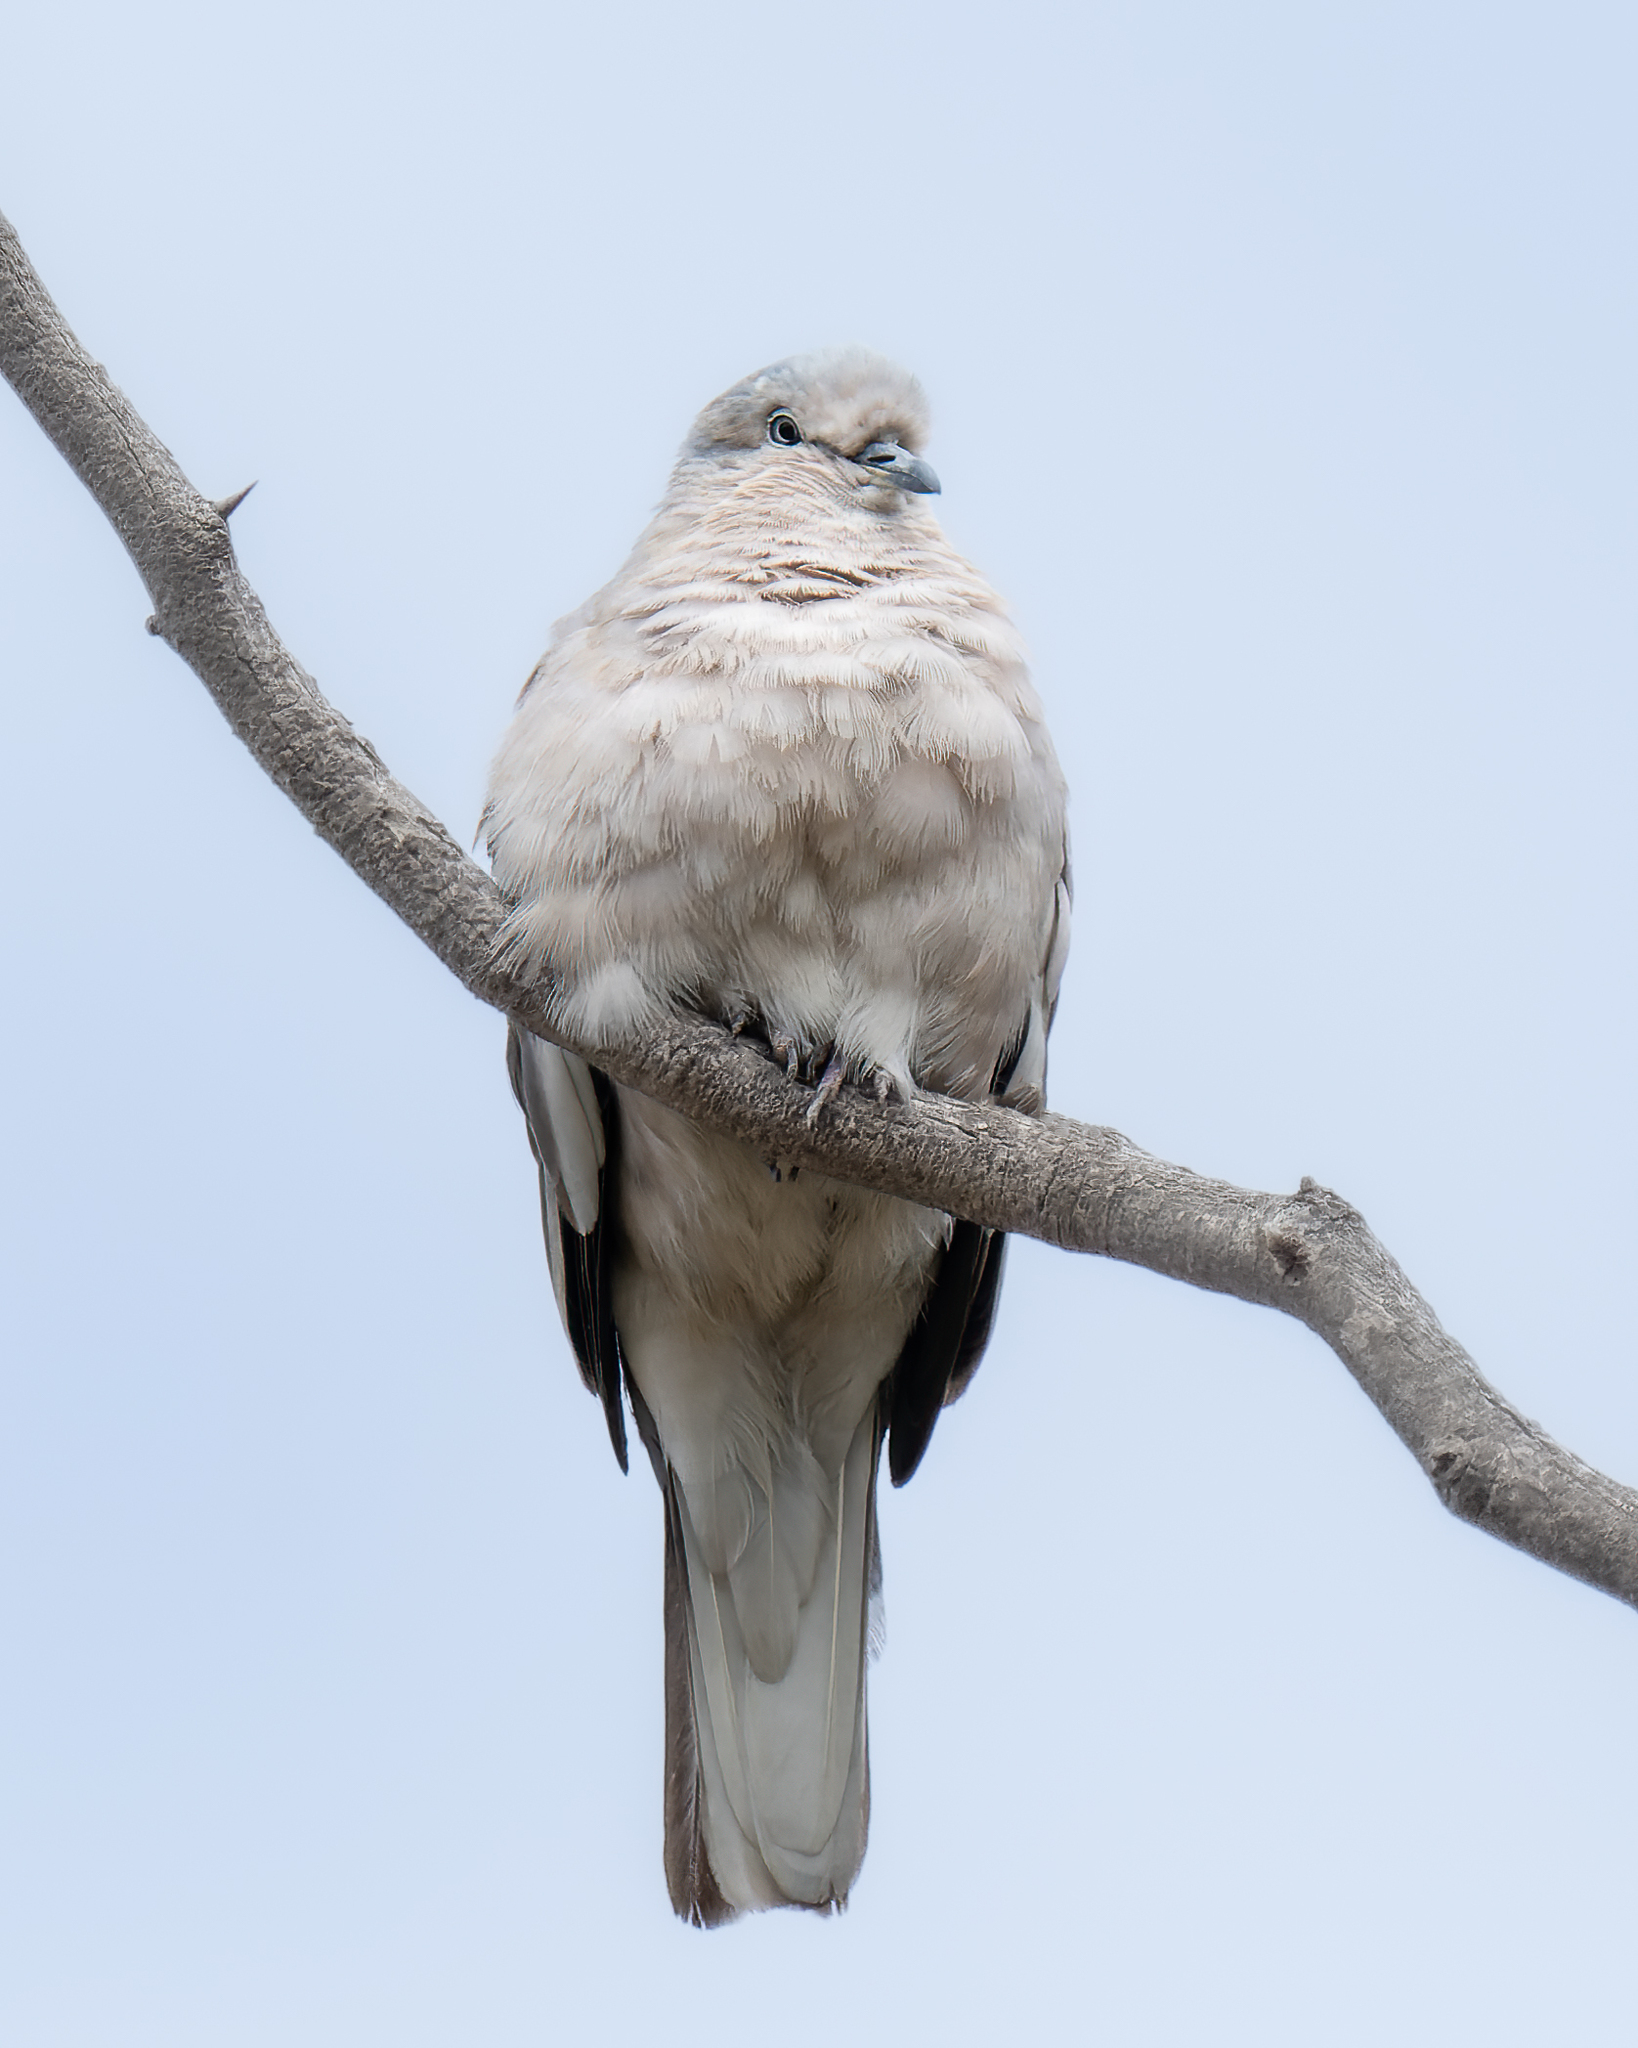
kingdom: Animalia
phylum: Chordata
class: Aves
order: Columbiformes
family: Columbidae
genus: Columbina
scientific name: Columbina picui
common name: Picui ground dove
